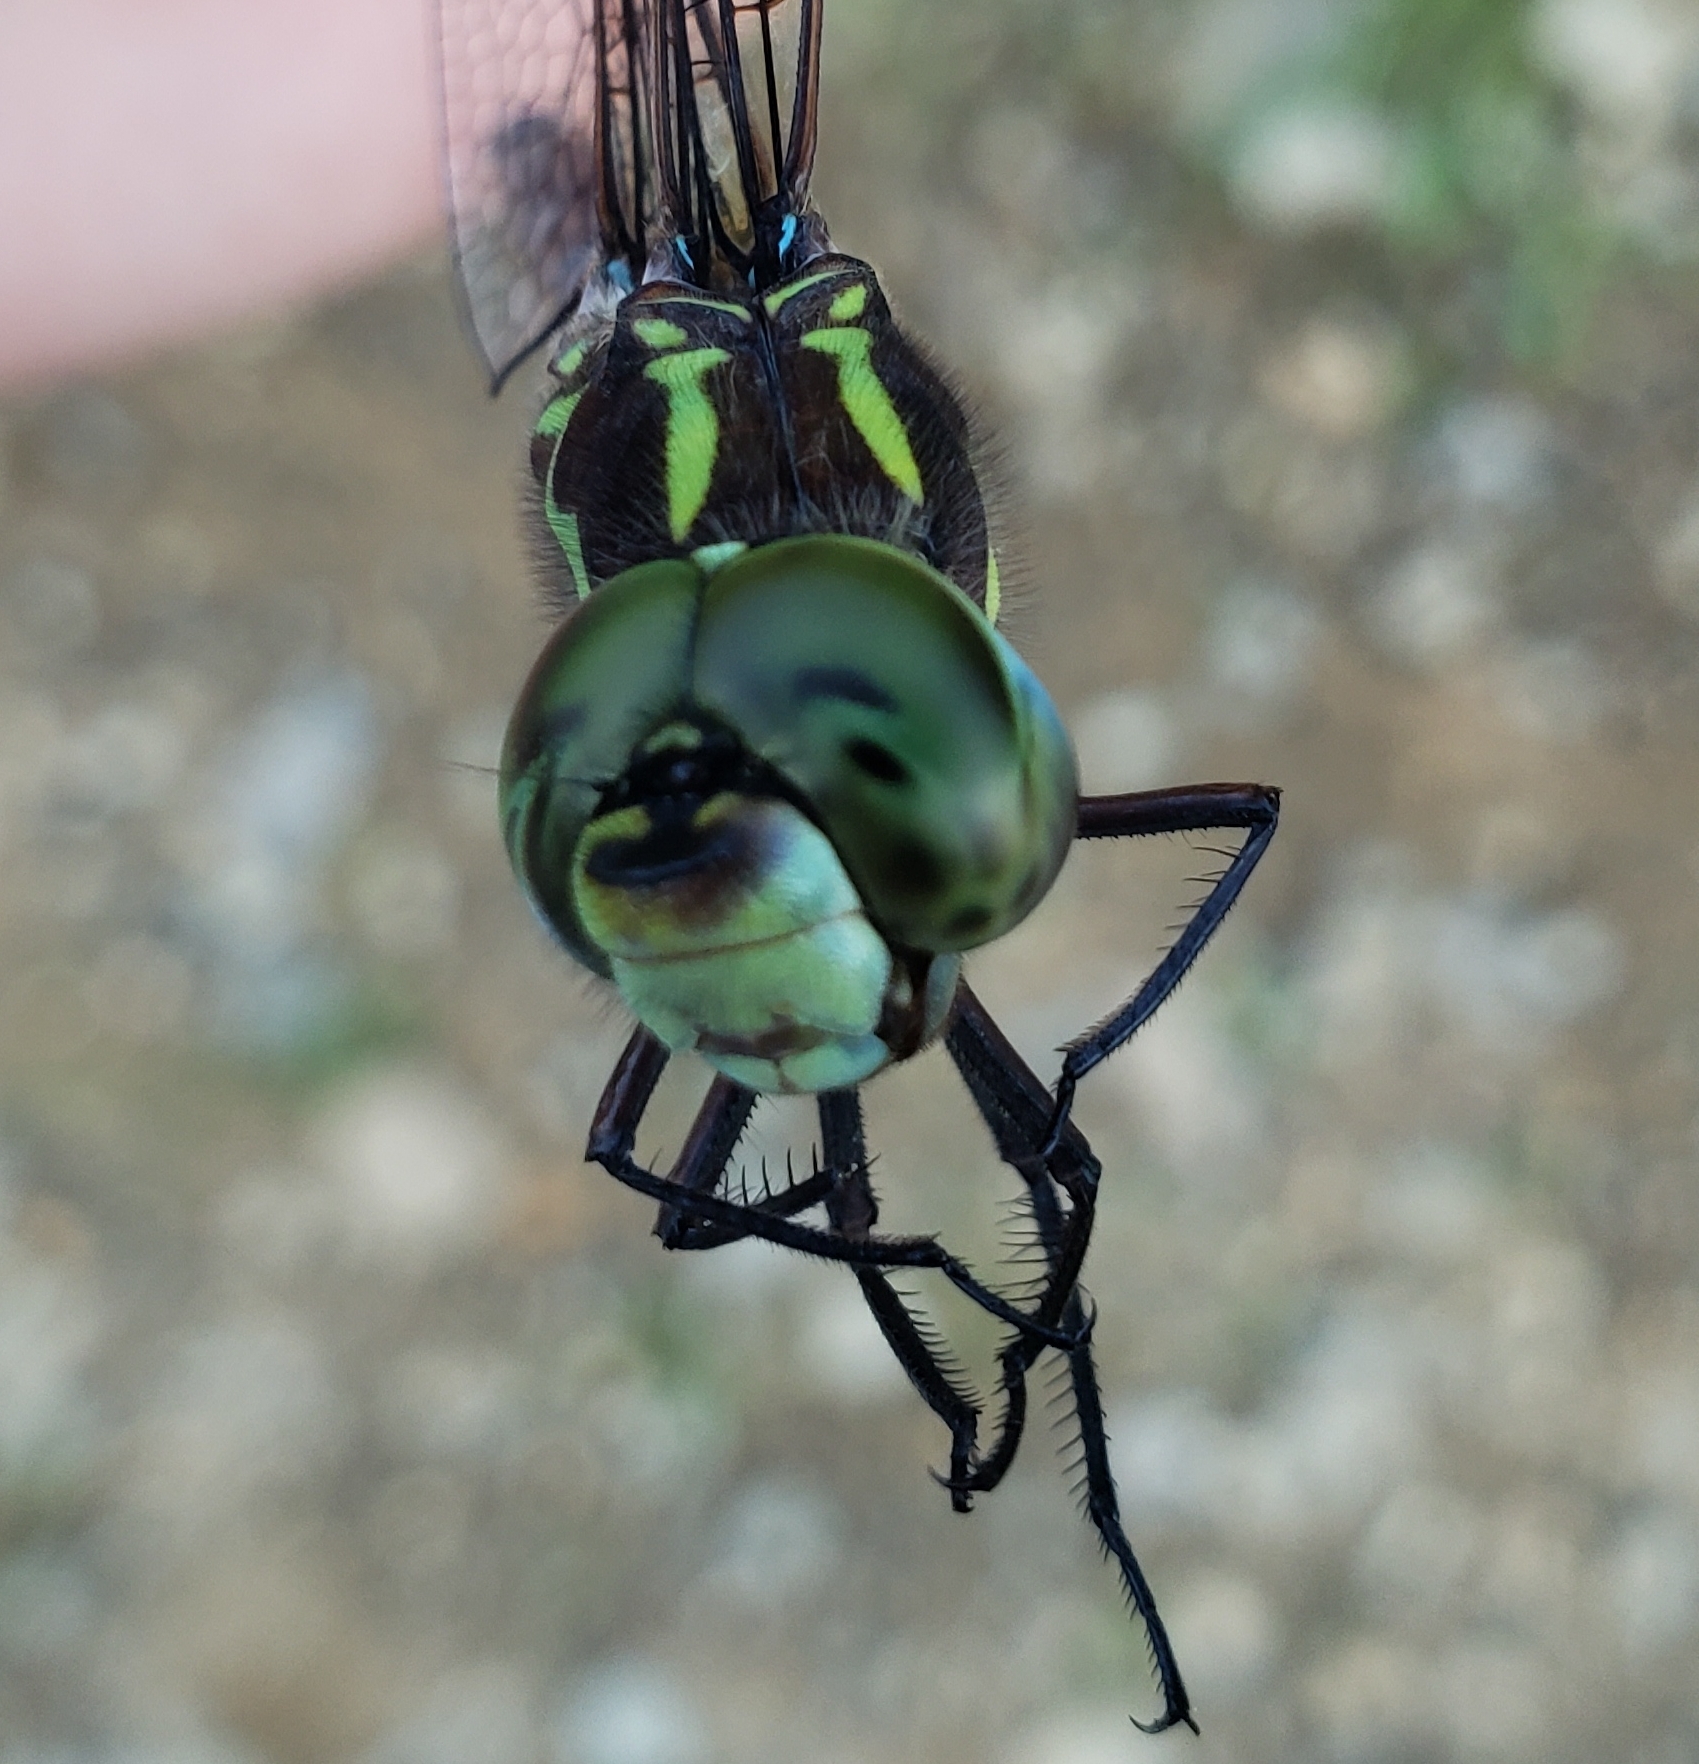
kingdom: Animalia
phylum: Arthropoda
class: Insecta
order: Odonata
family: Aeshnidae
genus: Aeshna
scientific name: Aeshna verticalis
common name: Green-striped darner
